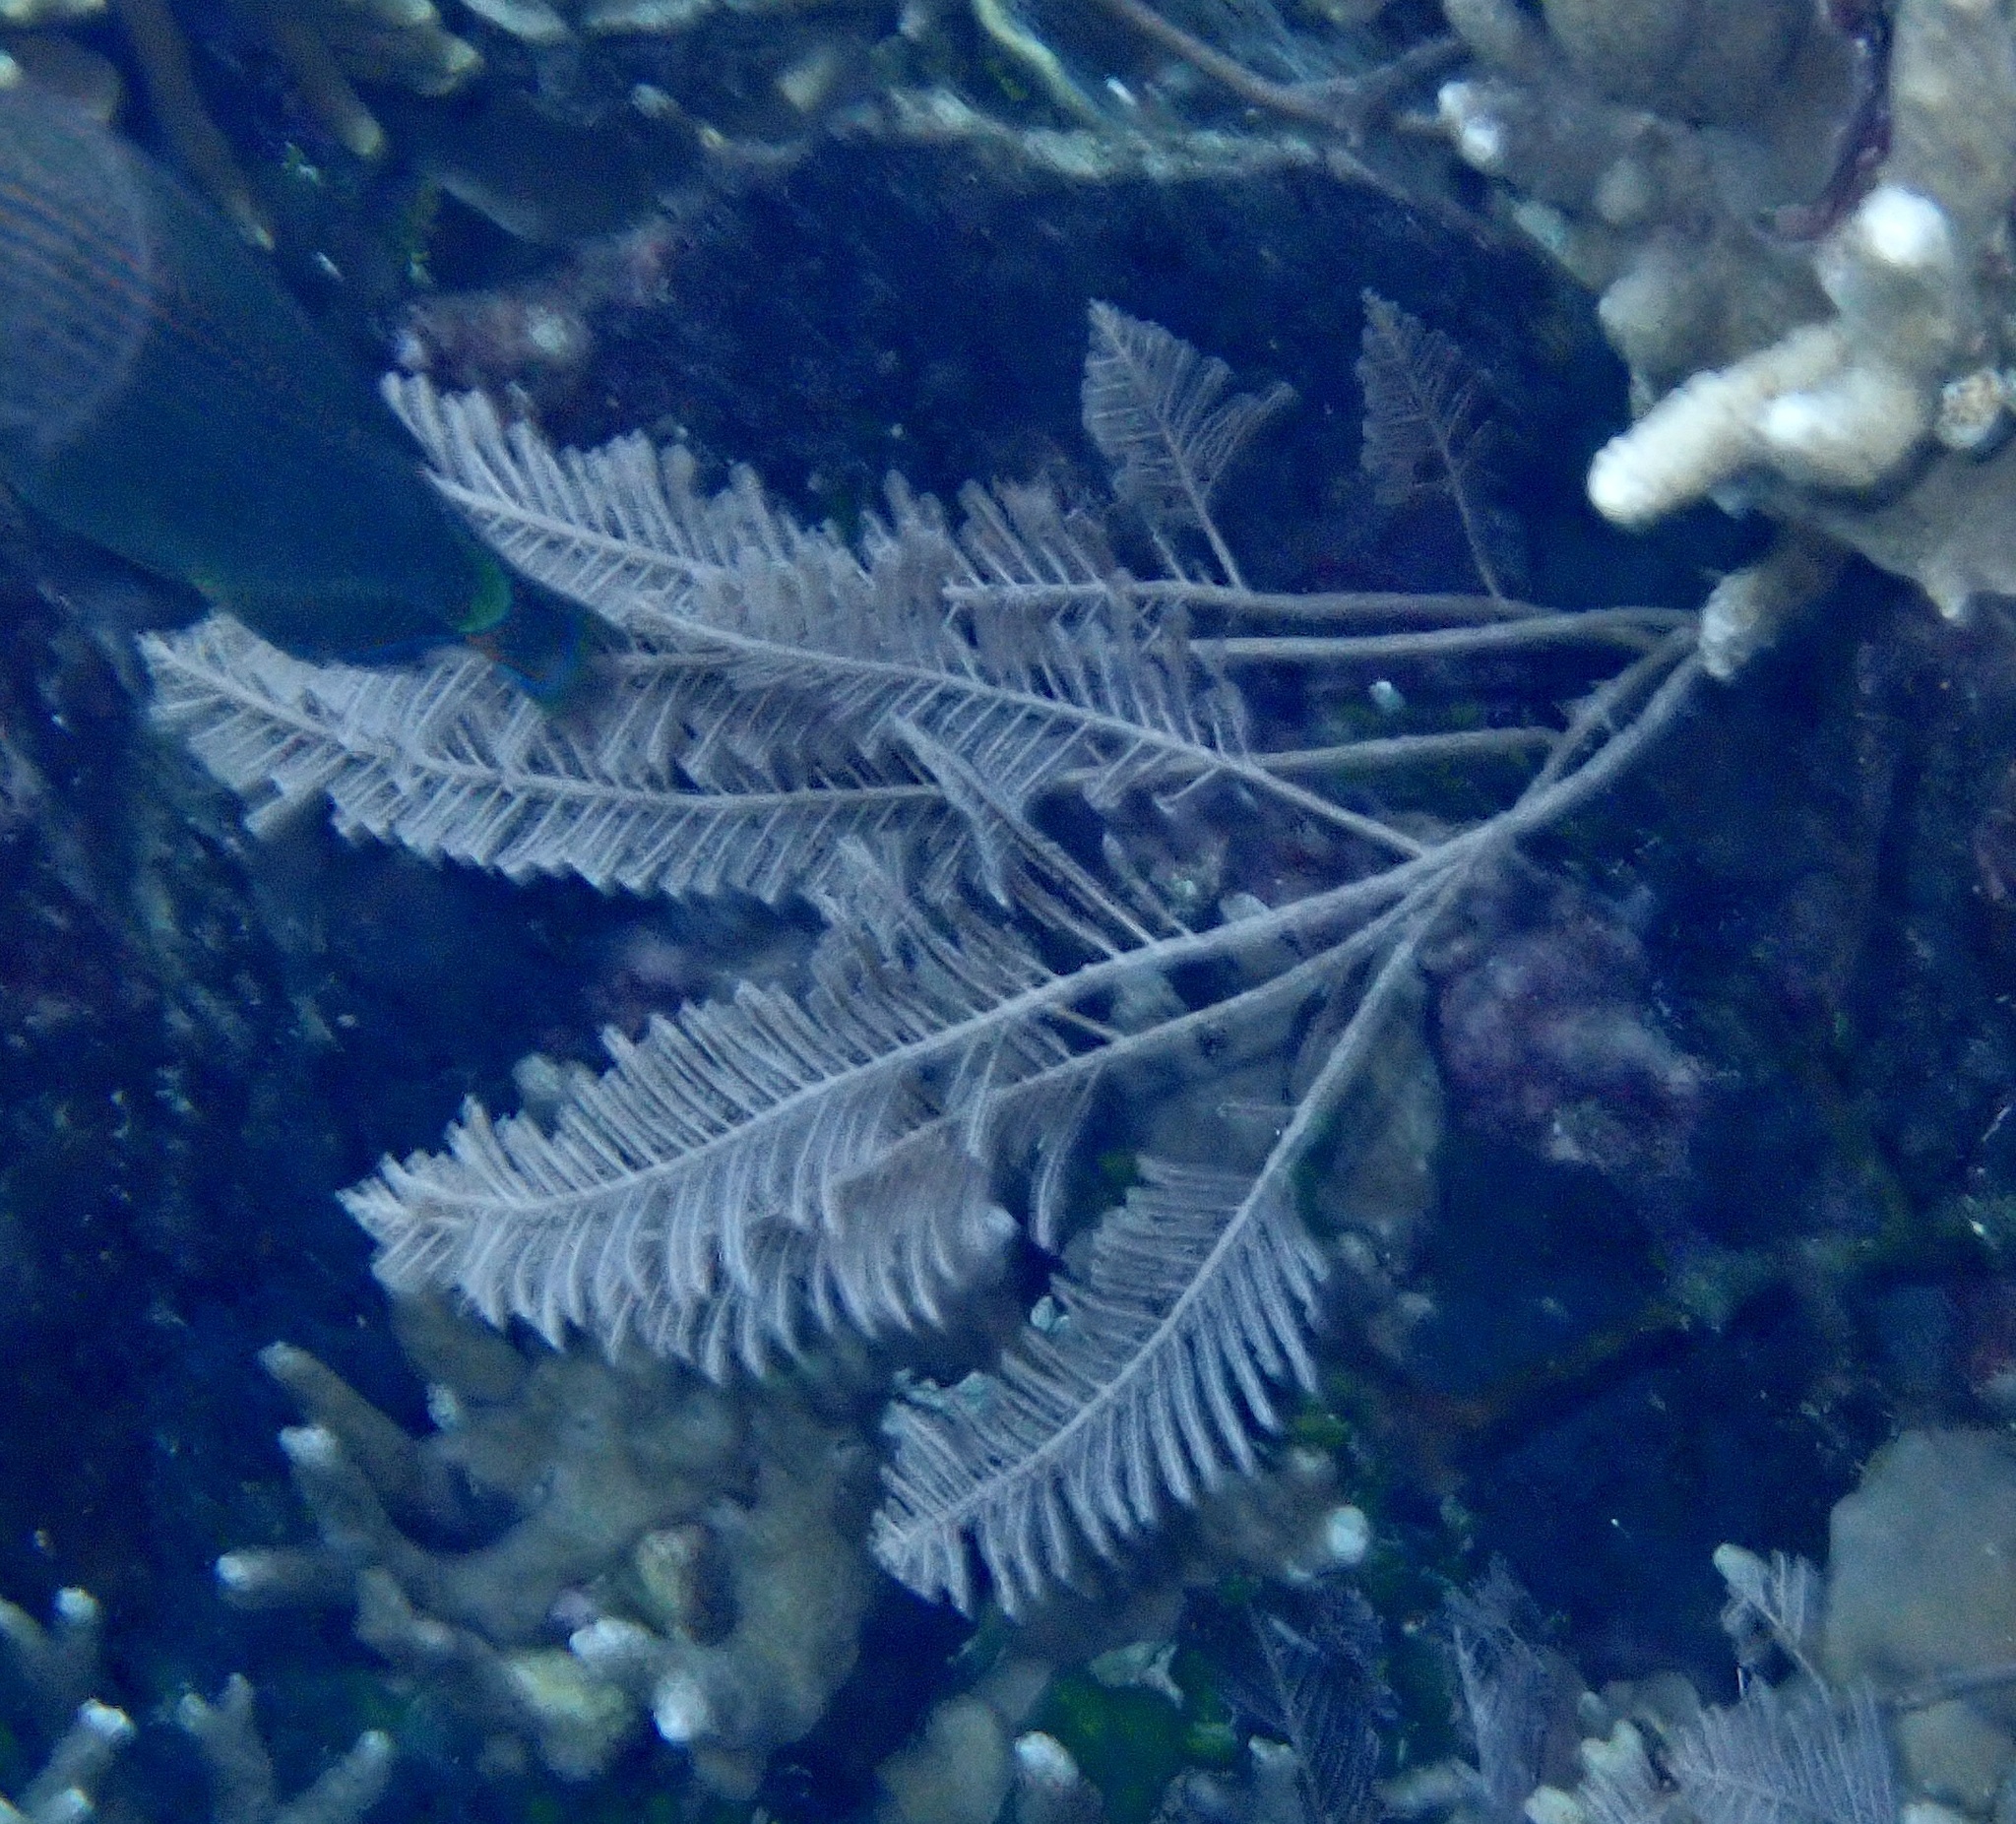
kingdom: Animalia
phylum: Cnidaria
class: Hydrozoa
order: Leptothecata
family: Aglaopheniidae
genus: Pachyrhynchia
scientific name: Pachyrhynchia cuppressina
